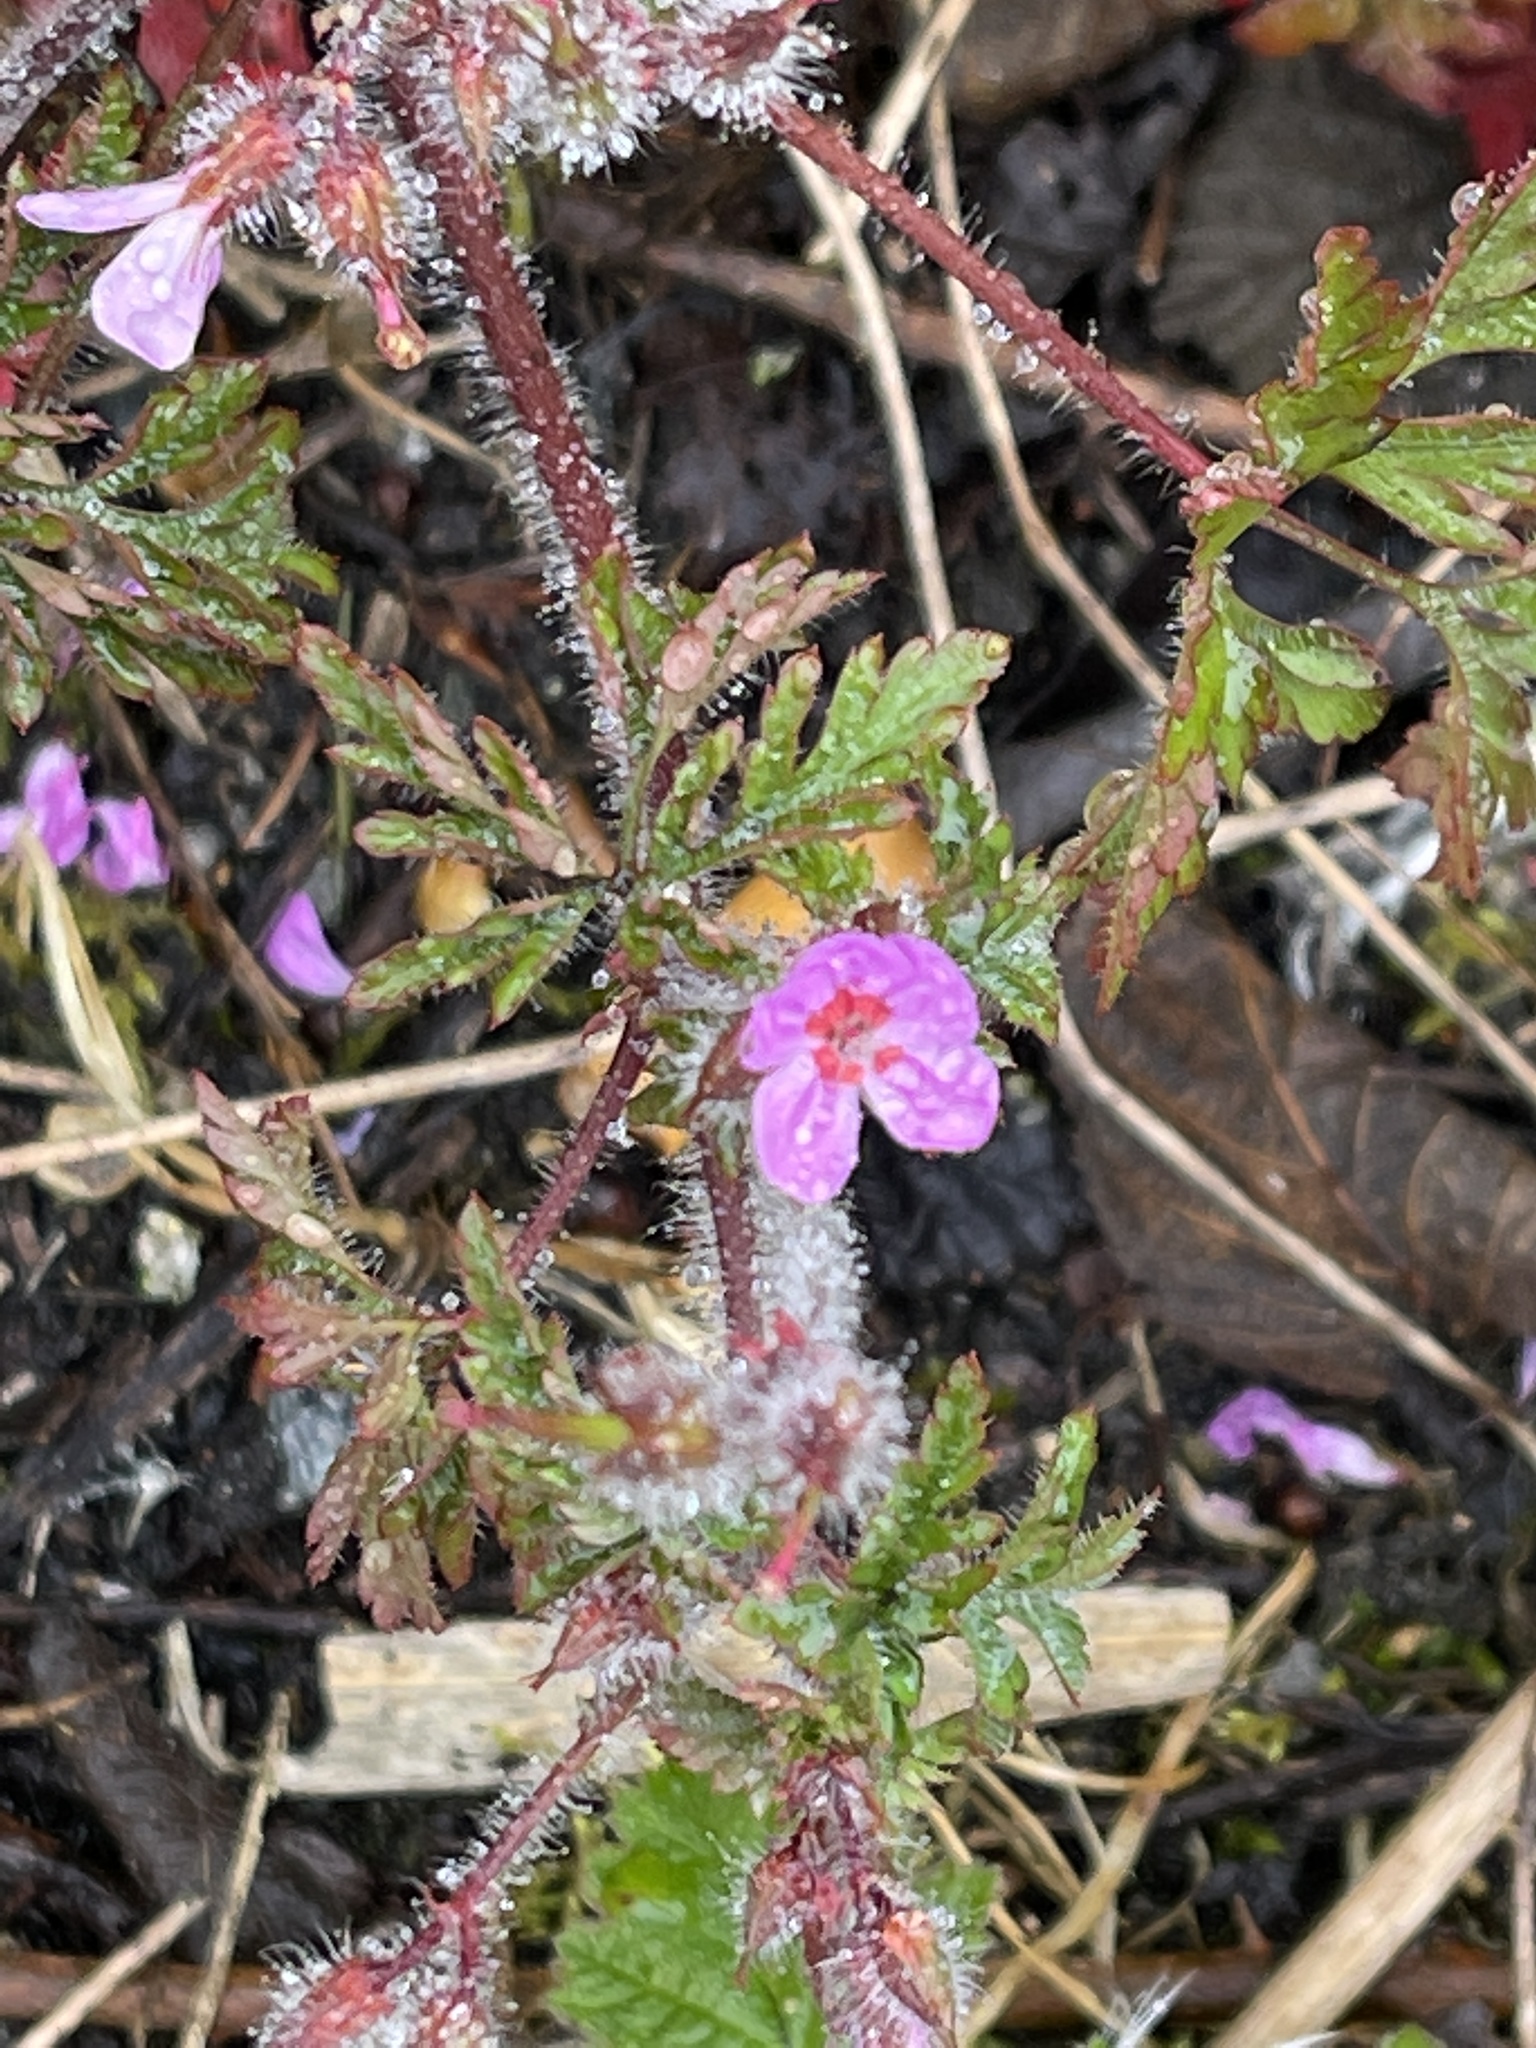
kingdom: Plantae
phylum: Tracheophyta
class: Magnoliopsida
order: Geraniales
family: Geraniaceae
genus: Geranium
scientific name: Geranium robertianum
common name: Herb-robert
